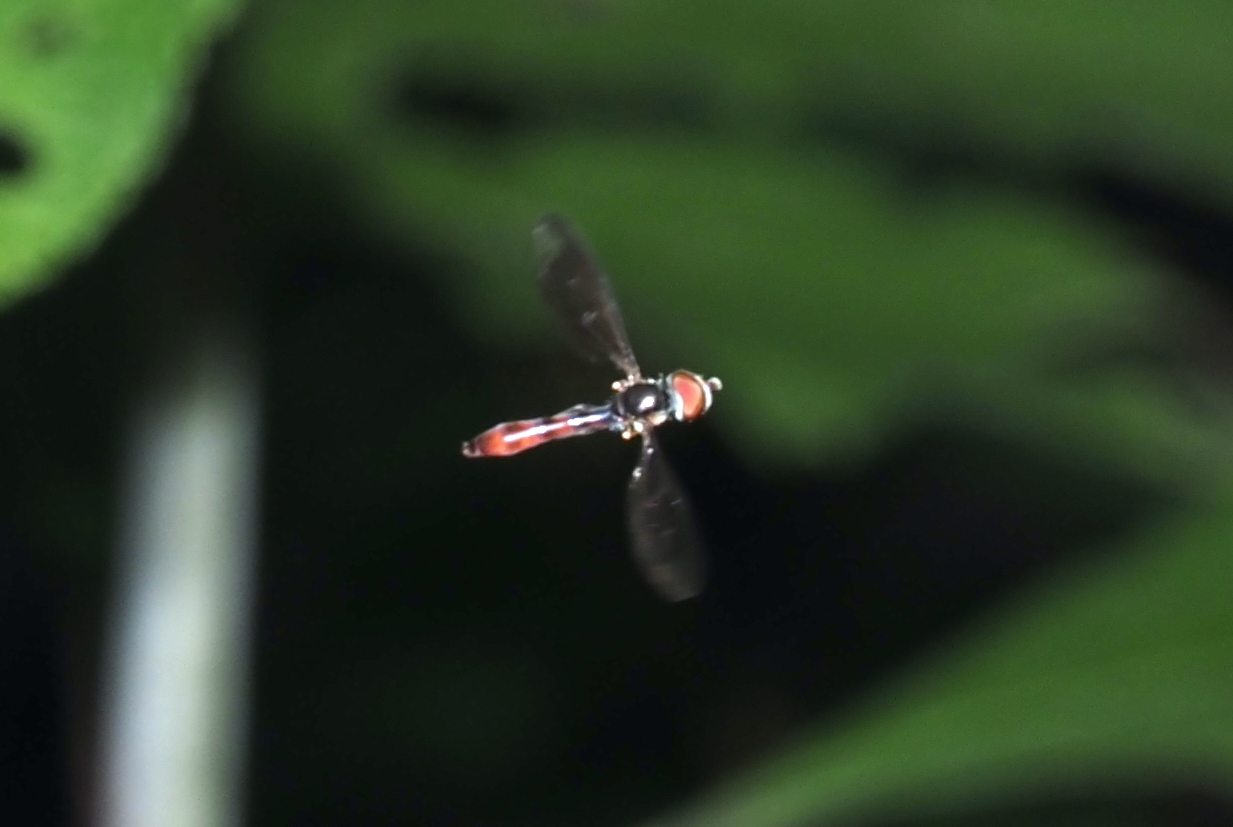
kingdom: Animalia
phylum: Arthropoda
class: Insecta
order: Diptera
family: Syrphidae
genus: Ocyptamus
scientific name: Ocyptamus fuscipennis
